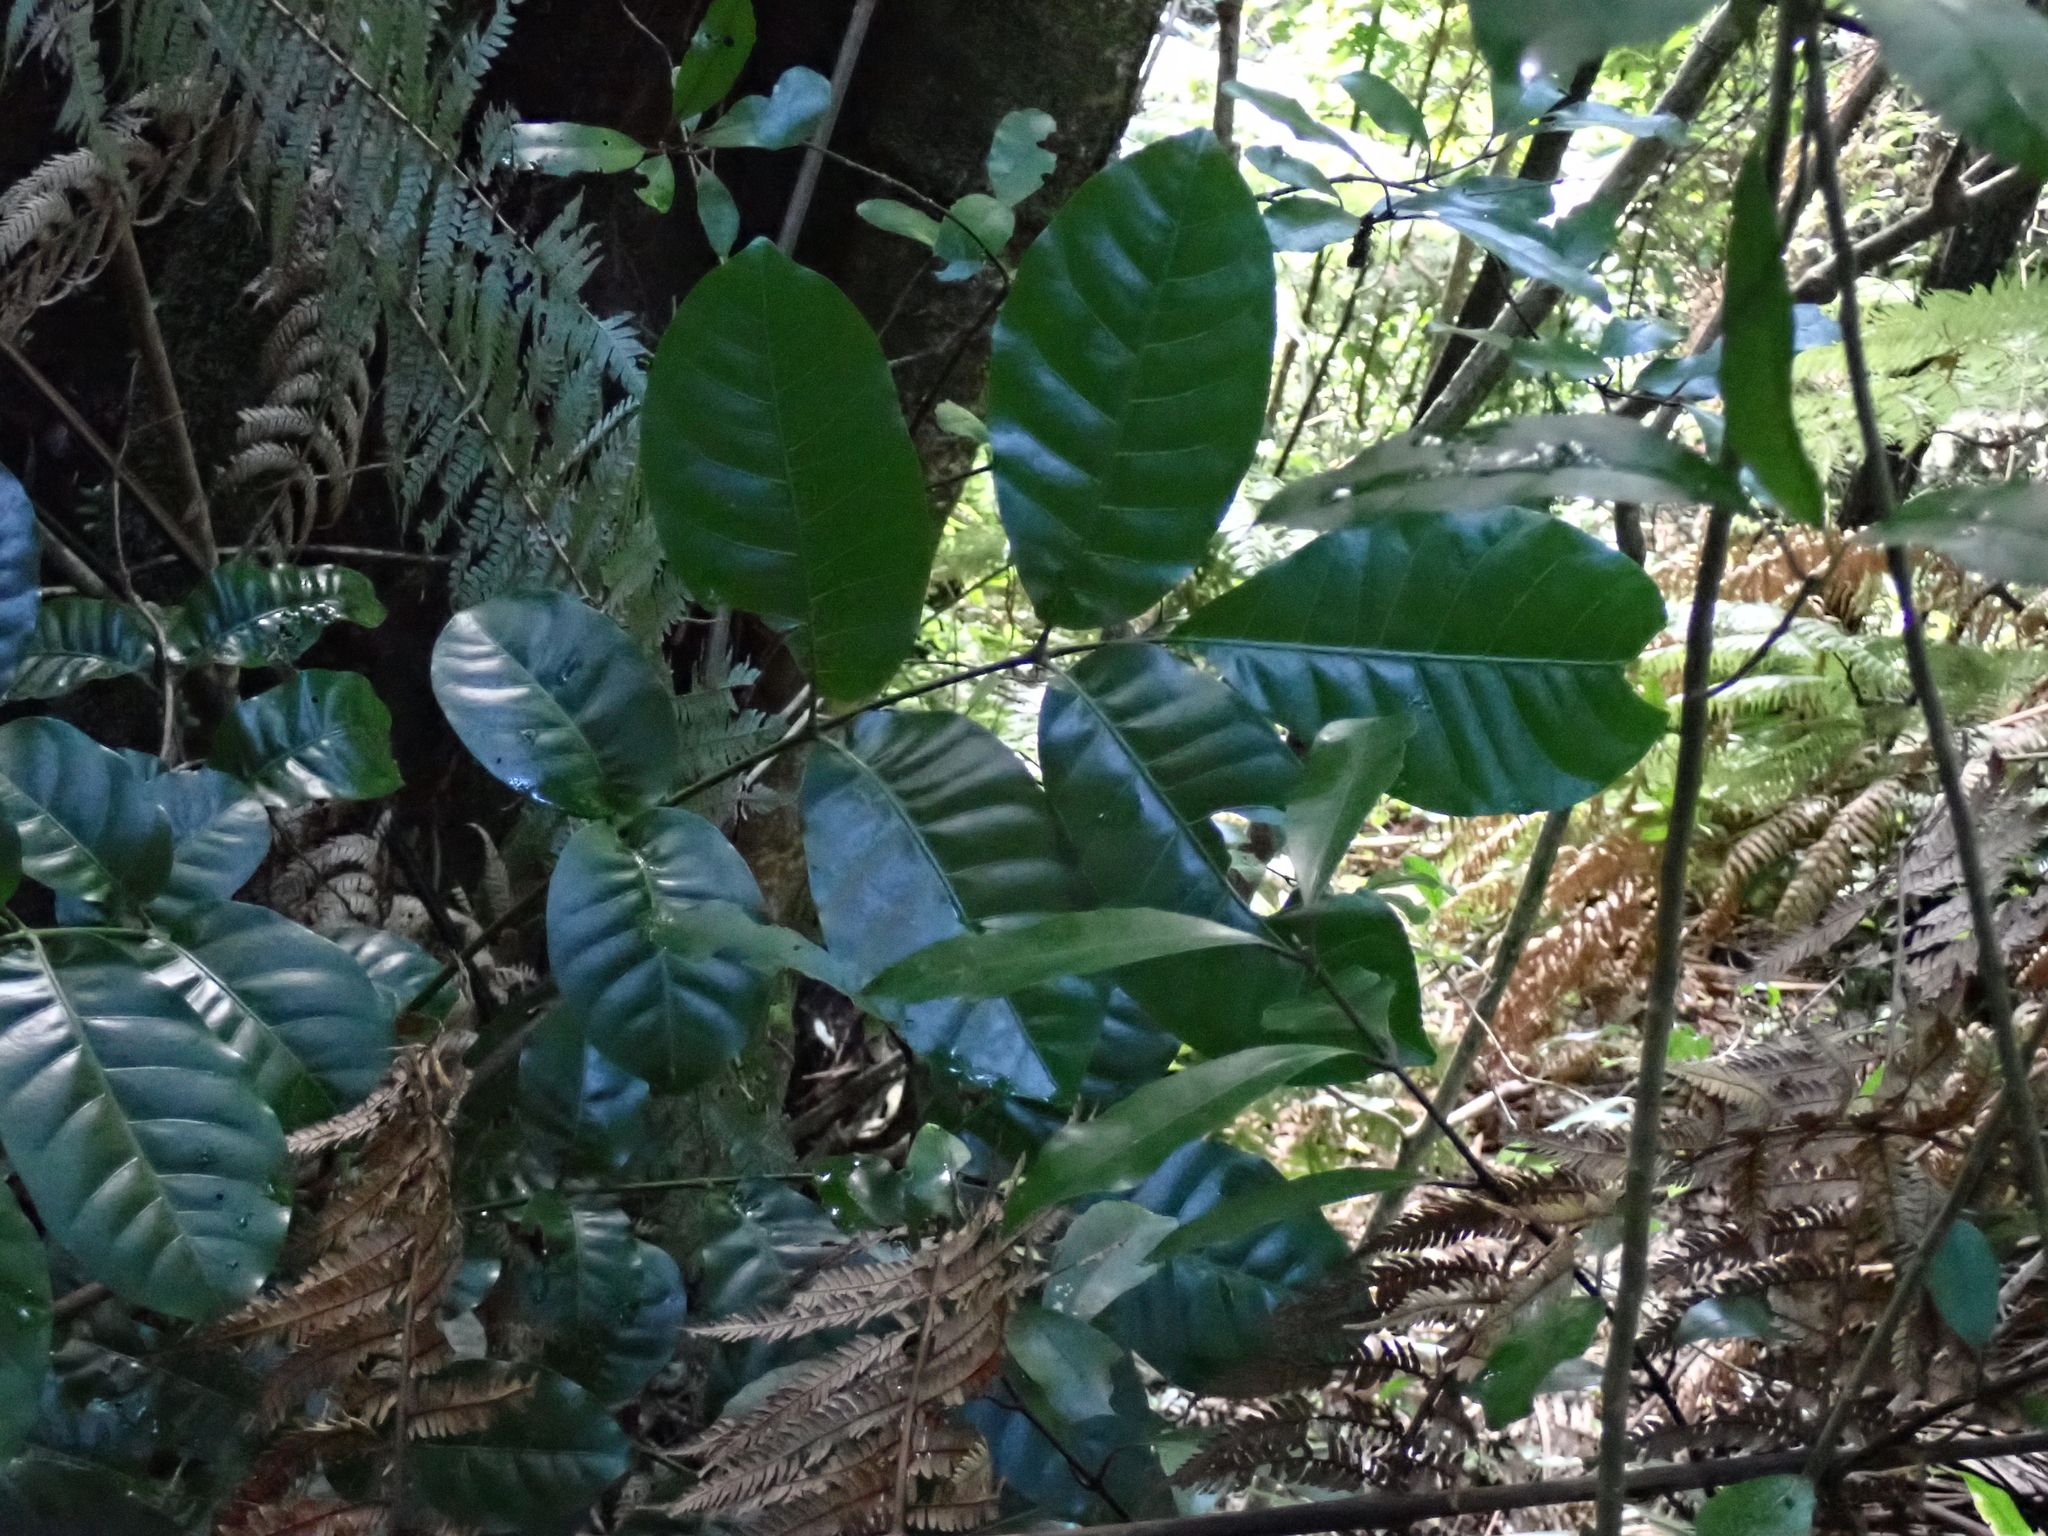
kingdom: Plantae
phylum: Tracheophyta
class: Magnoliopsida
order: Lamiales
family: Lamiaceae
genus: Vitex
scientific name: Vitex lucens
